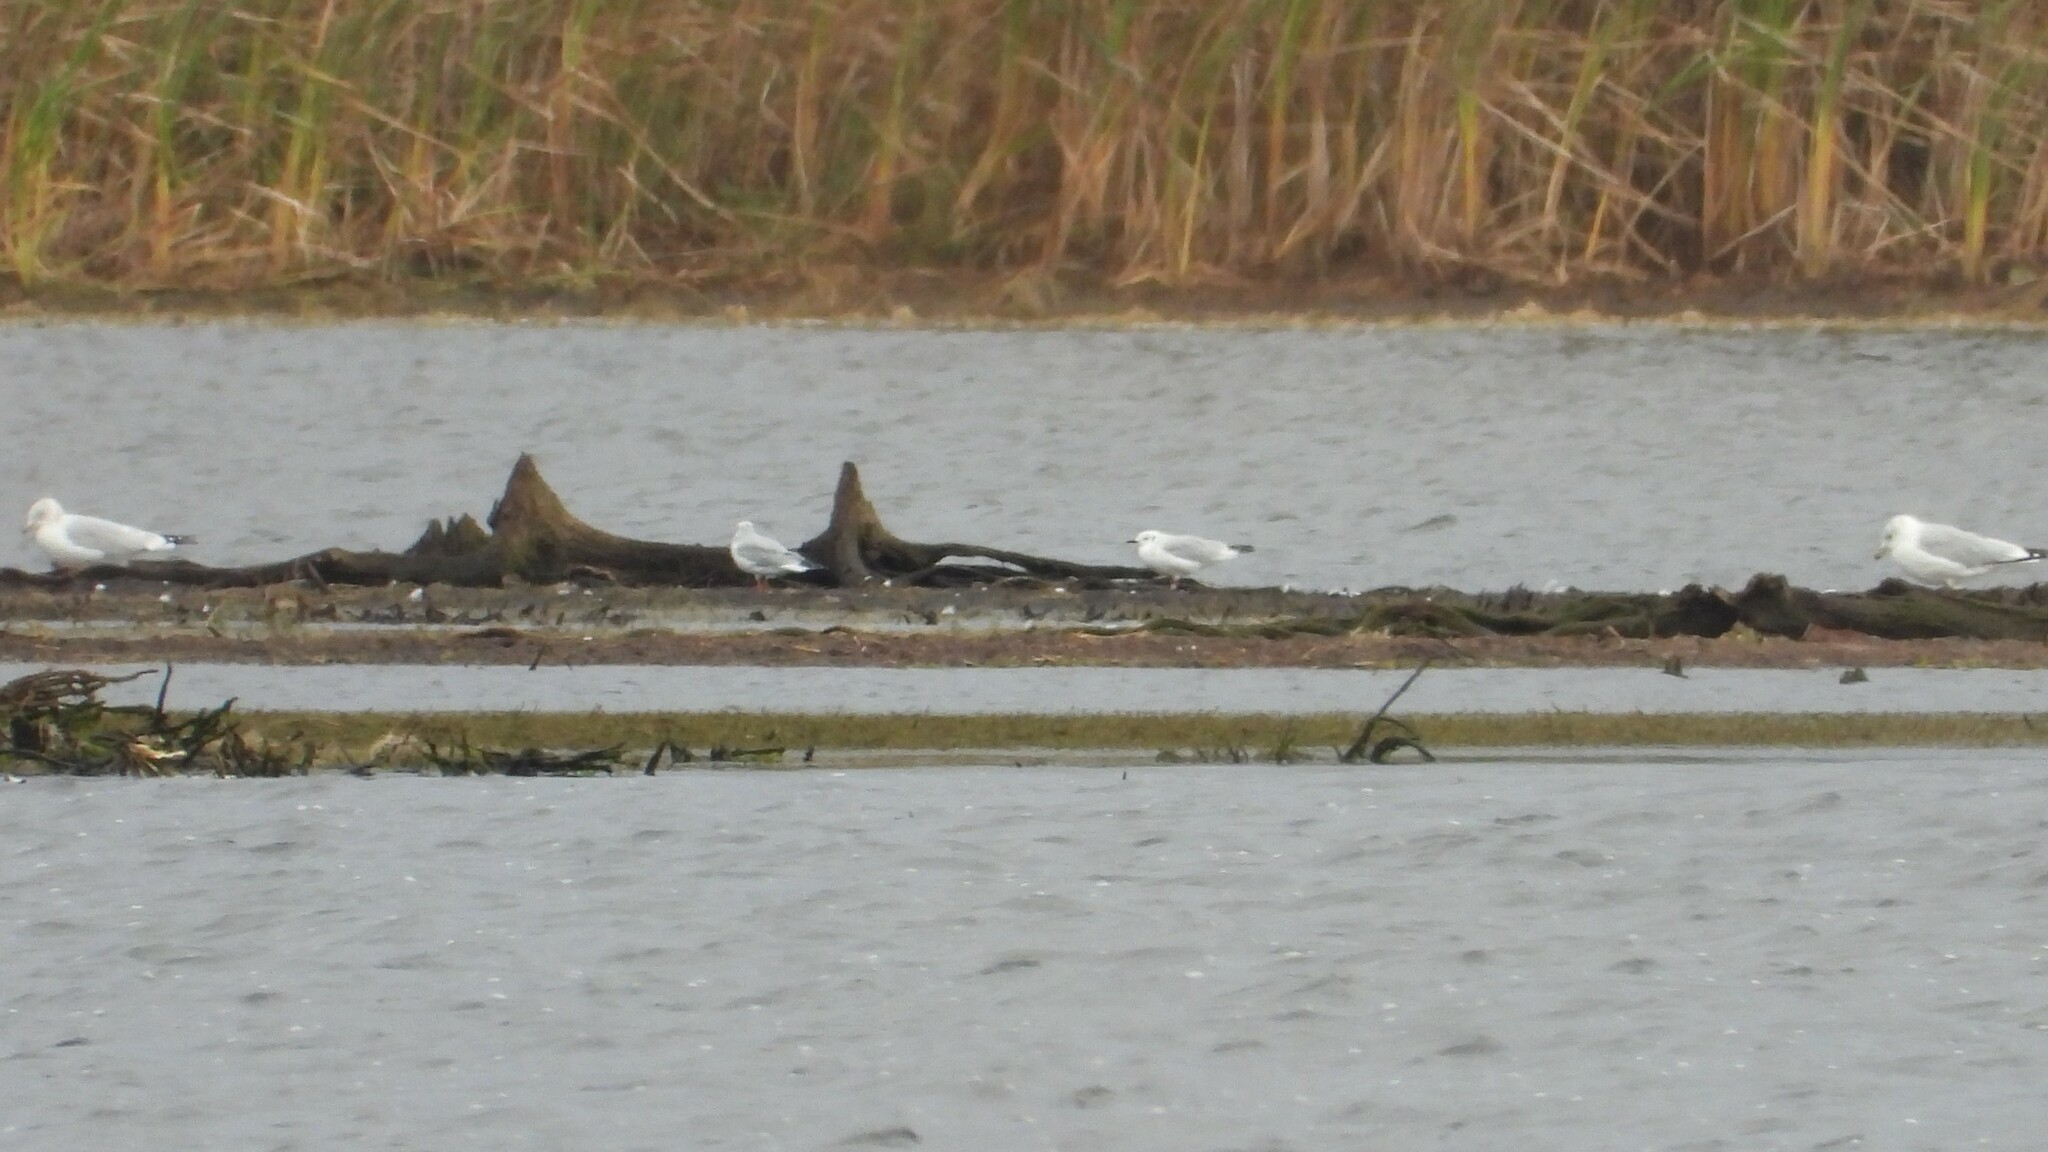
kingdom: Animalia
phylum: Chordata
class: Aves
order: Charadriiformes
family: Laridae
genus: Chroicocephalus
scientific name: Chroicocephalus philadelphia
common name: Bonaparte's gull
